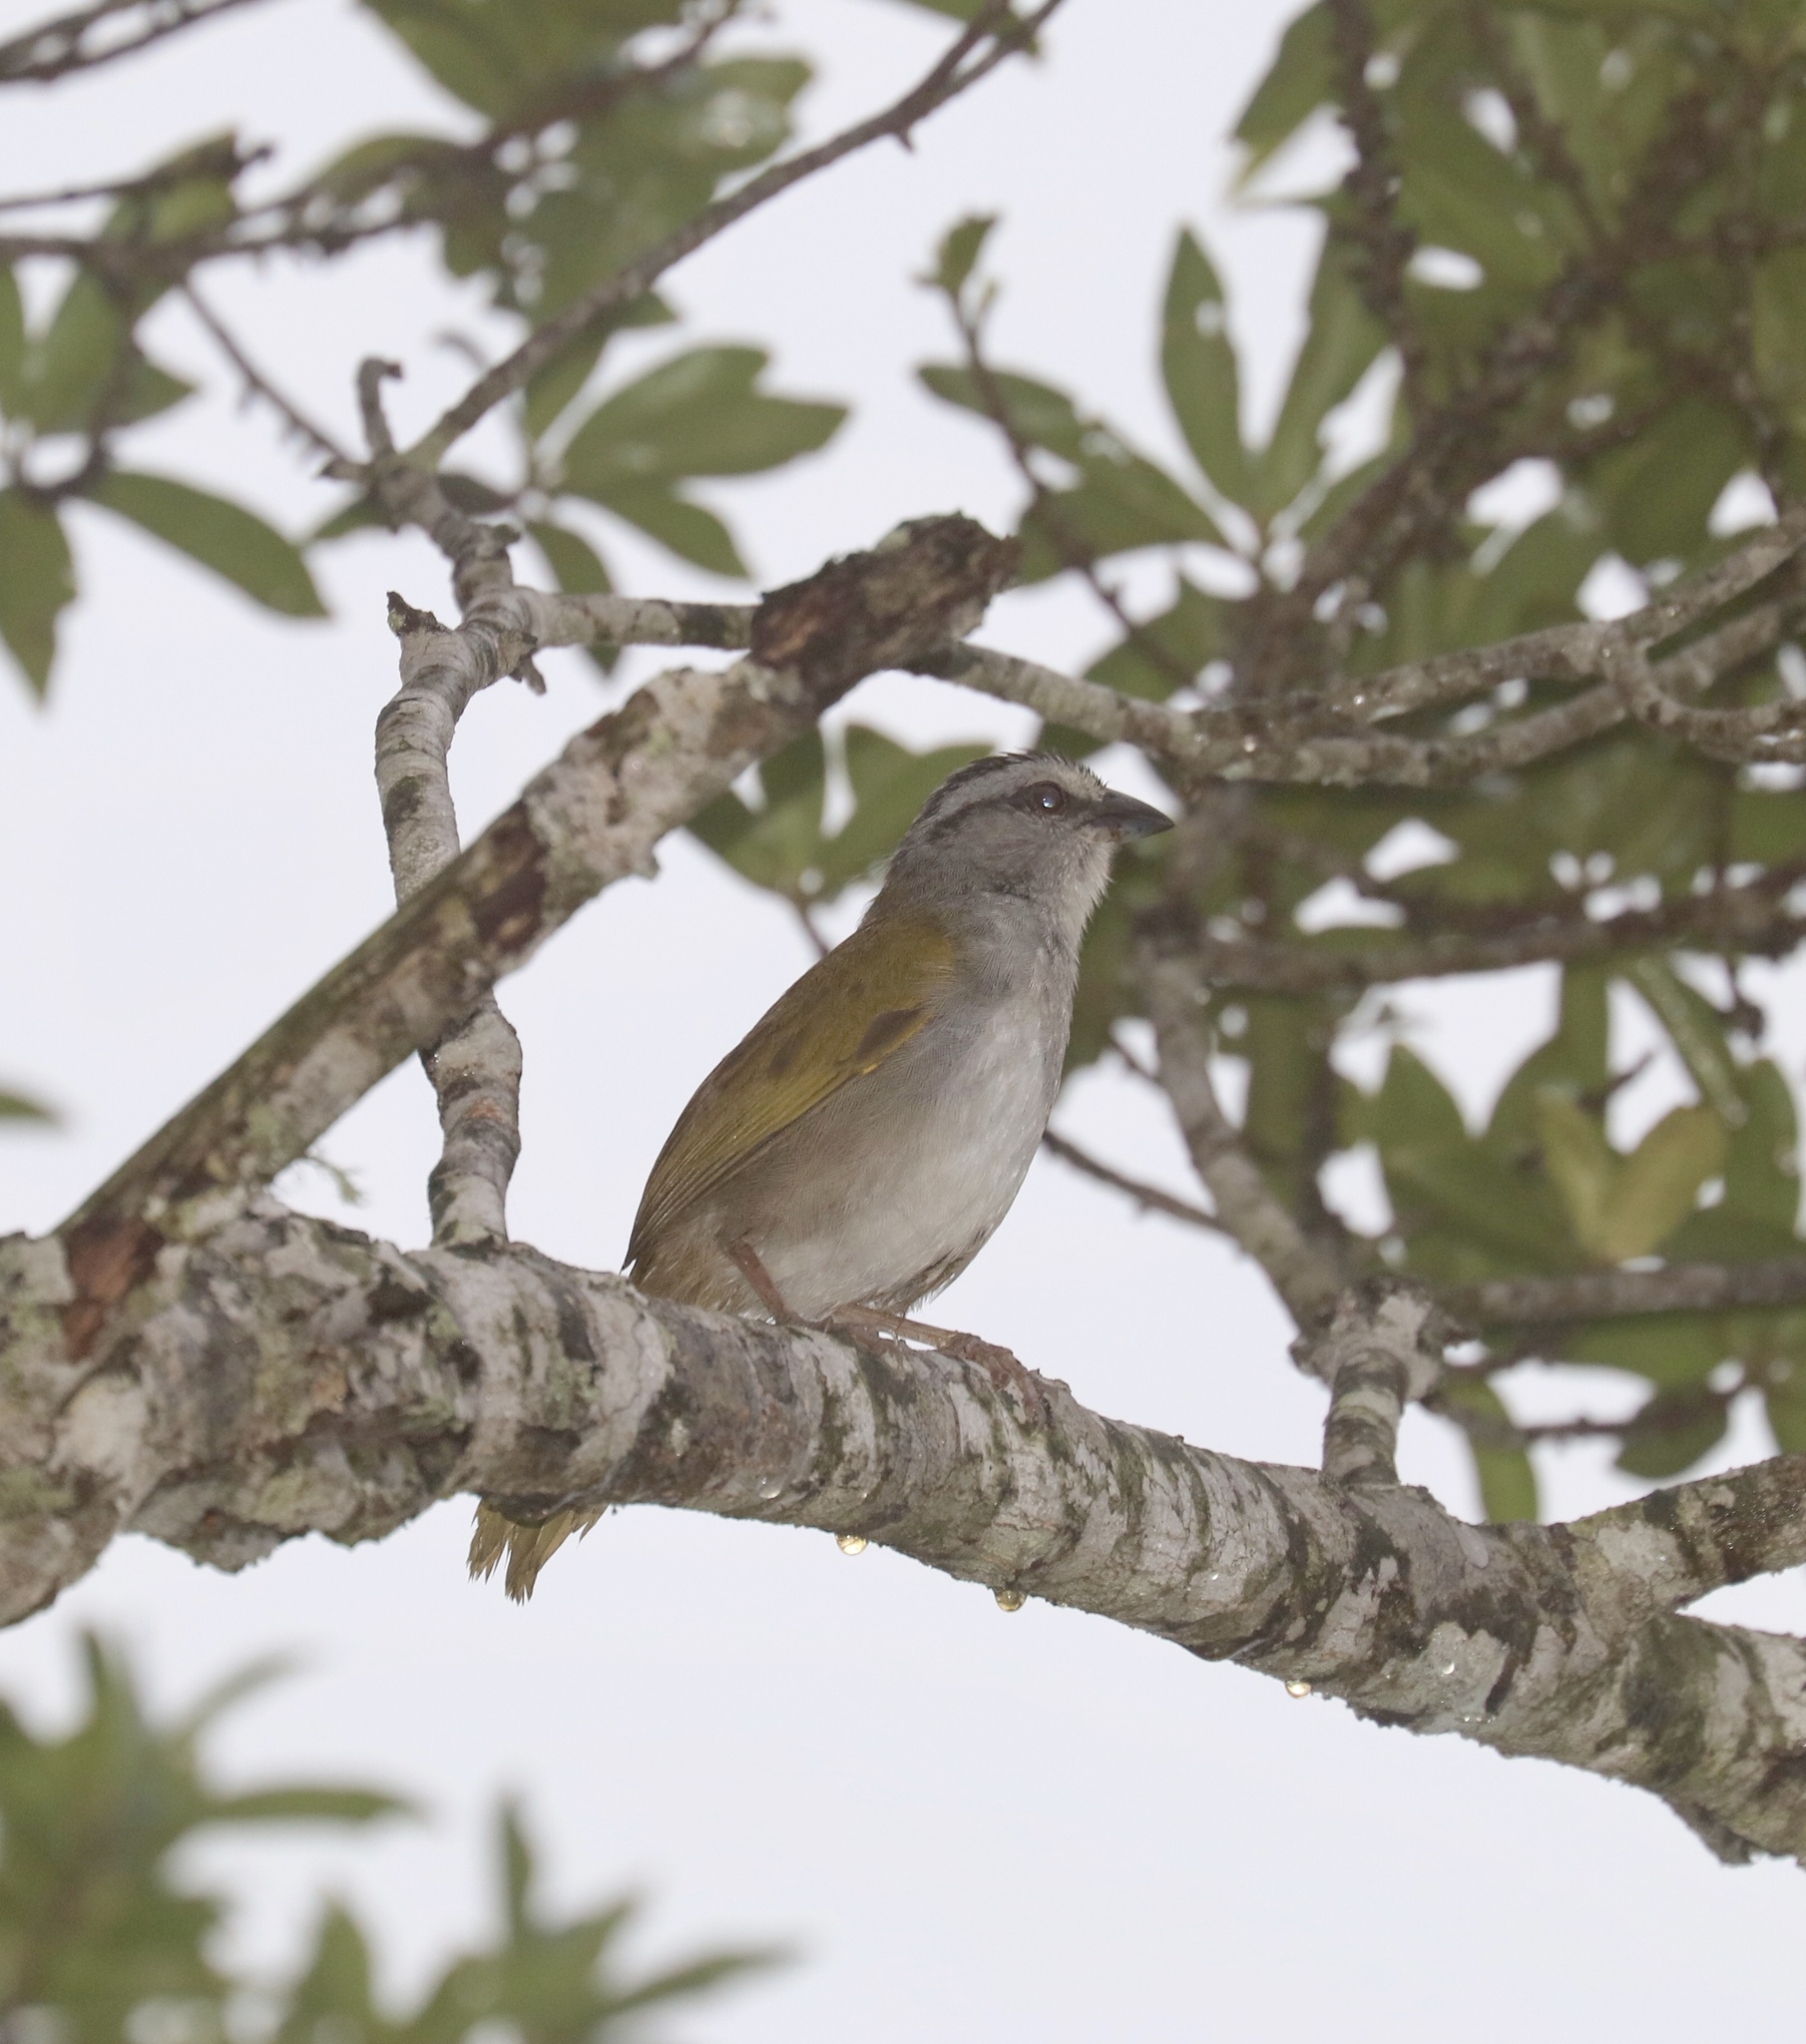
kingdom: Animalia
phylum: Chordata
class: Aves
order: Passeriformes
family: Passerellidae
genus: Arremonops
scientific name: Arremonops conirostris
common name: Black-striped sparrow
